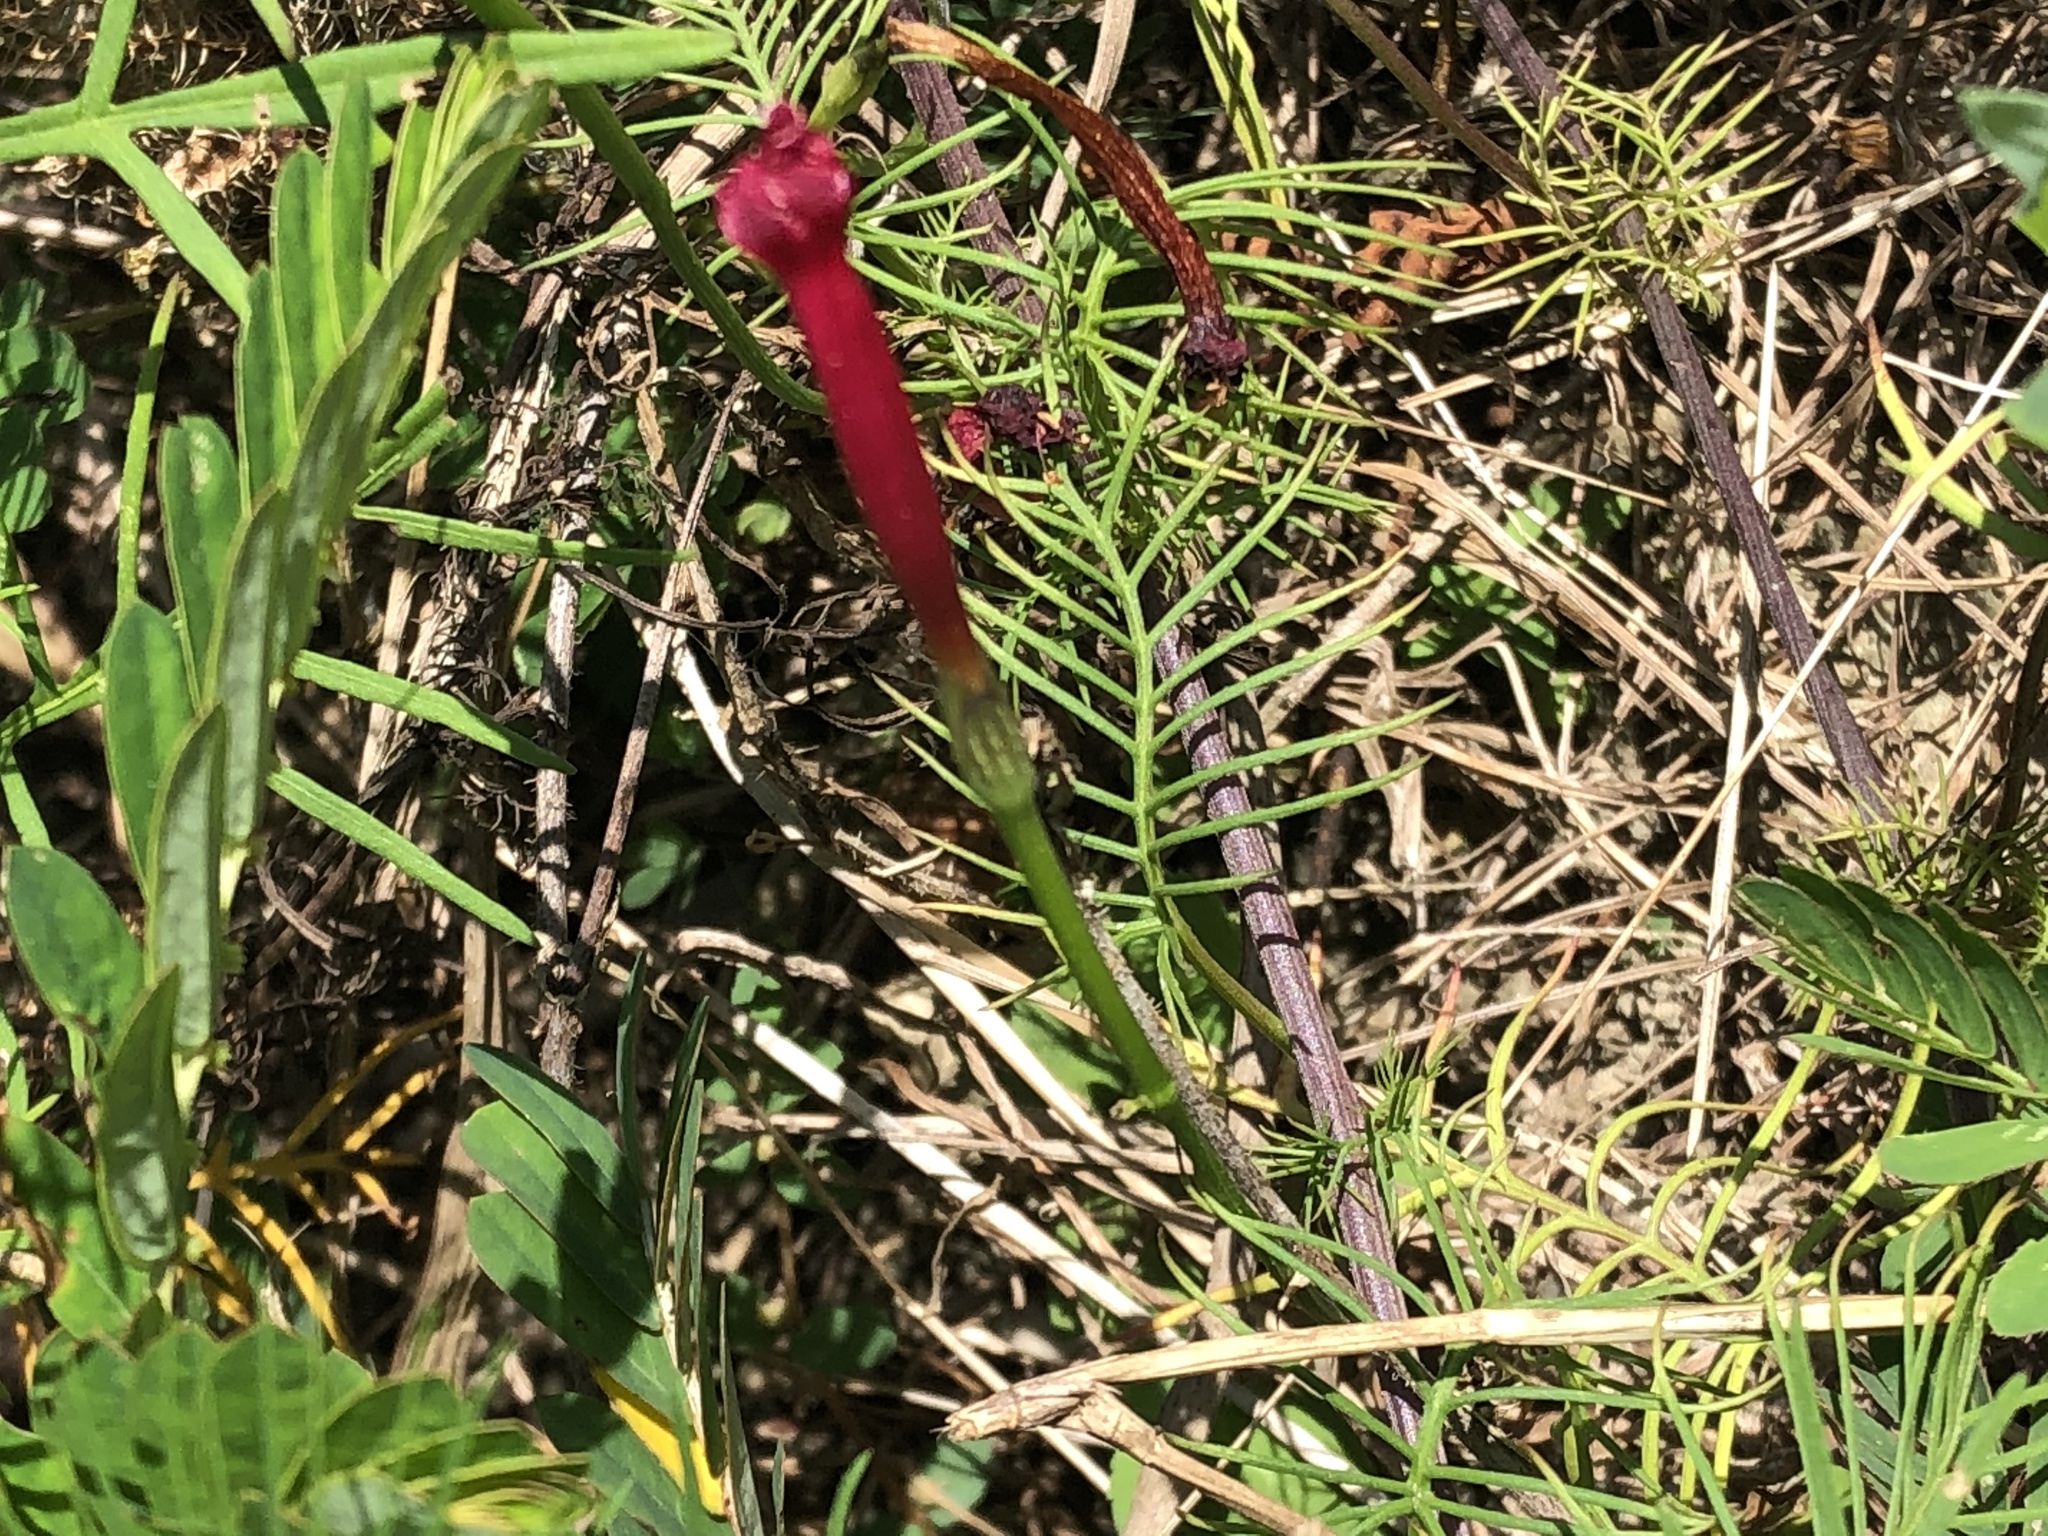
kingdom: Plantae
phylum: Tracheophyta
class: Magnoliopsida
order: Solanales
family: Convolvulaceae
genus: Ipomoea
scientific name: Ipomoea quamoclit
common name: Cypress vine
